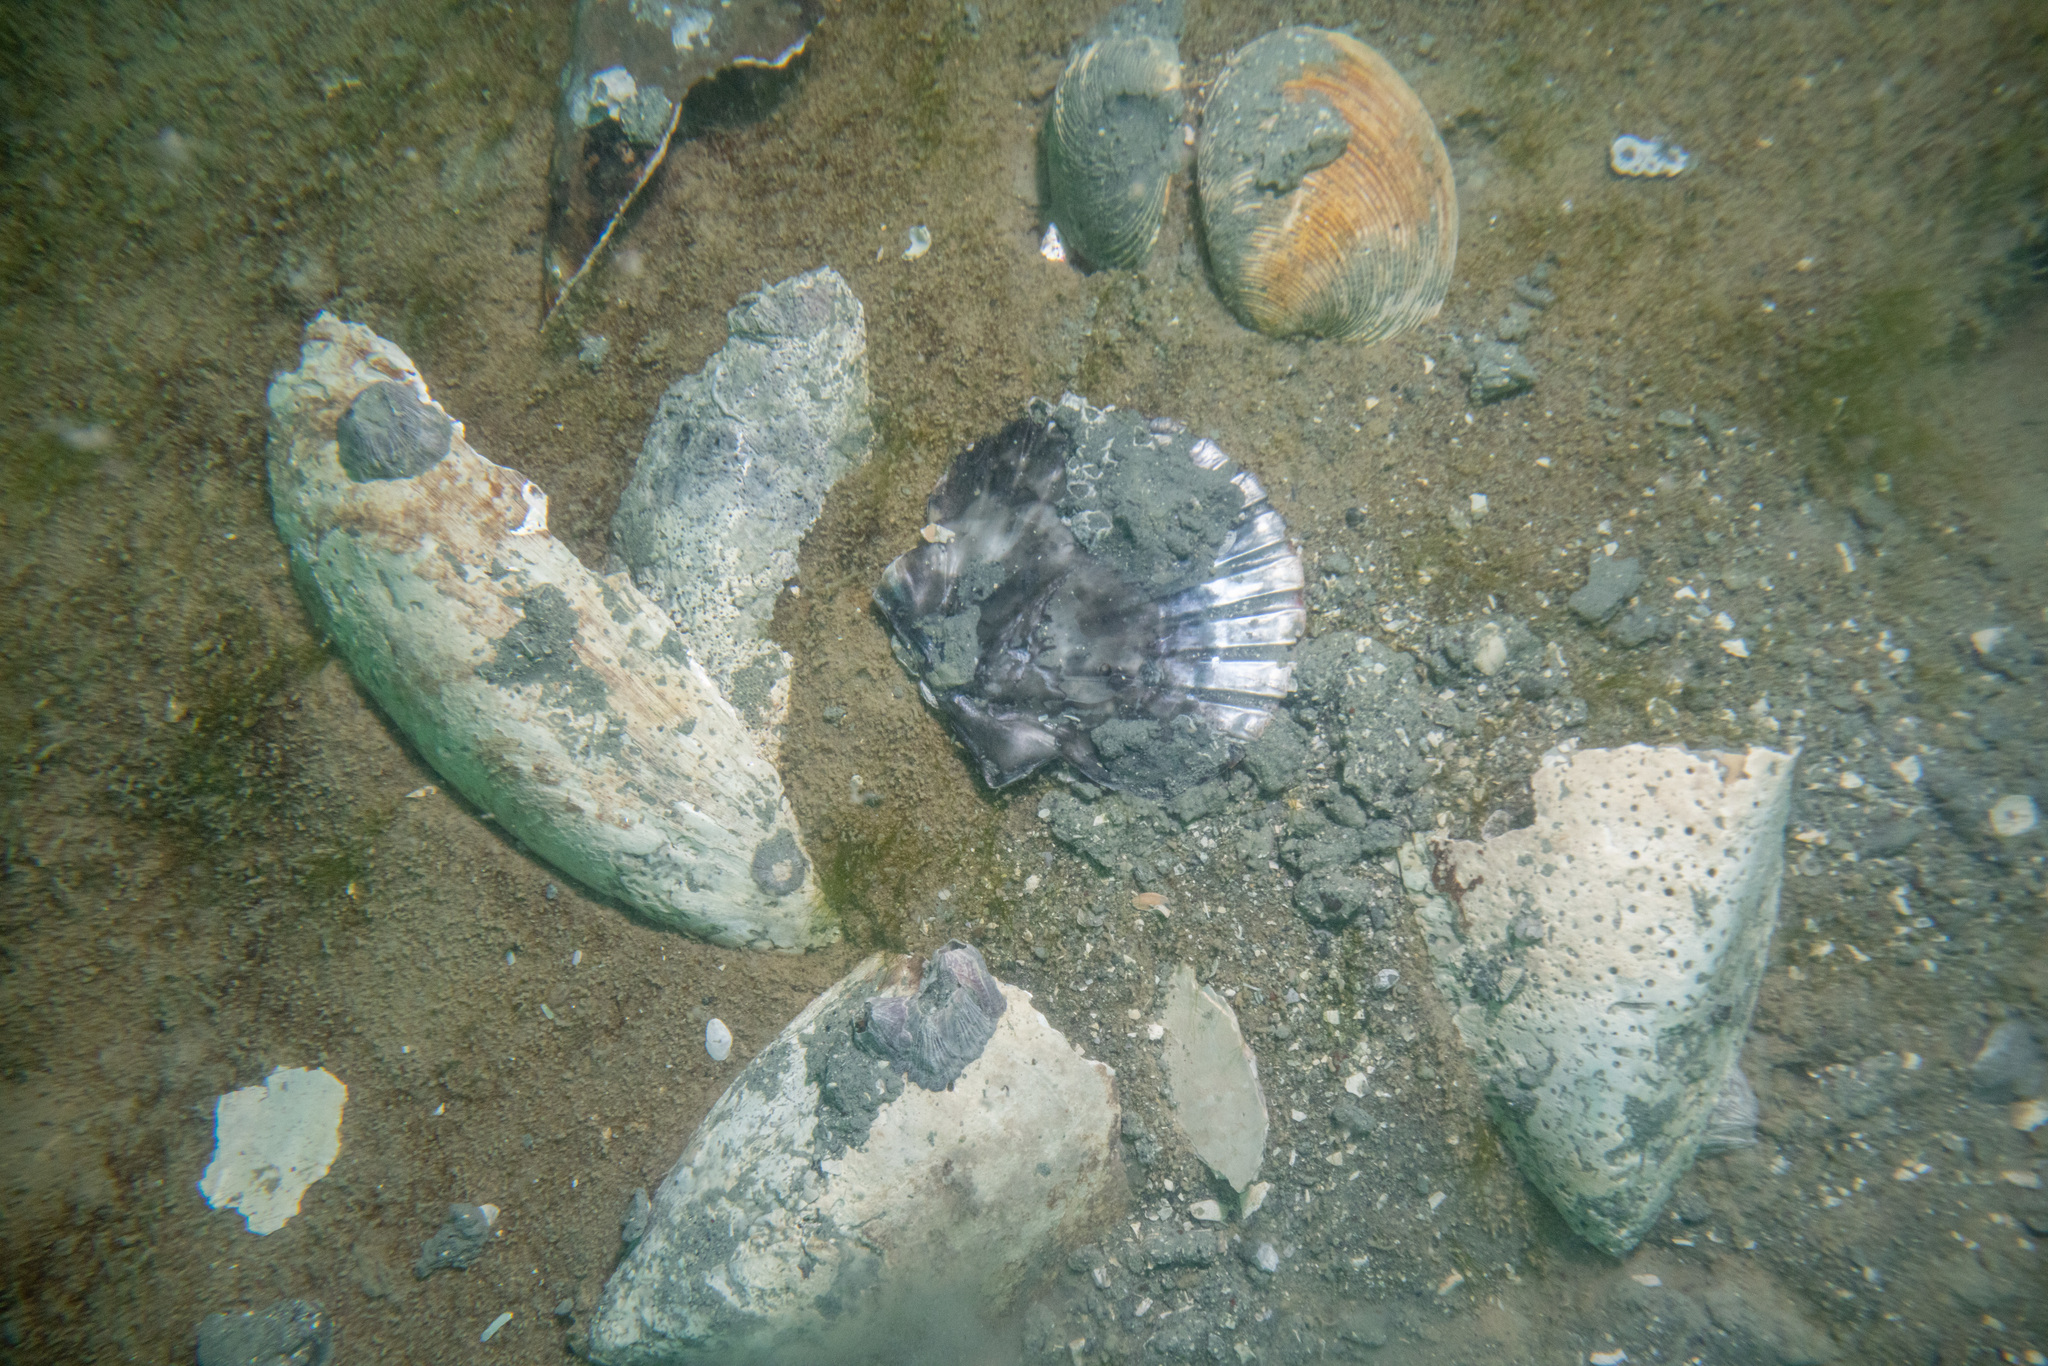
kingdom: Animalia
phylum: Mollusca
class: Bivalvia
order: Pectinida
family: Pectinidae
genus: Pecten
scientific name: Pecten novaezelandiae
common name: New zealand scallop
